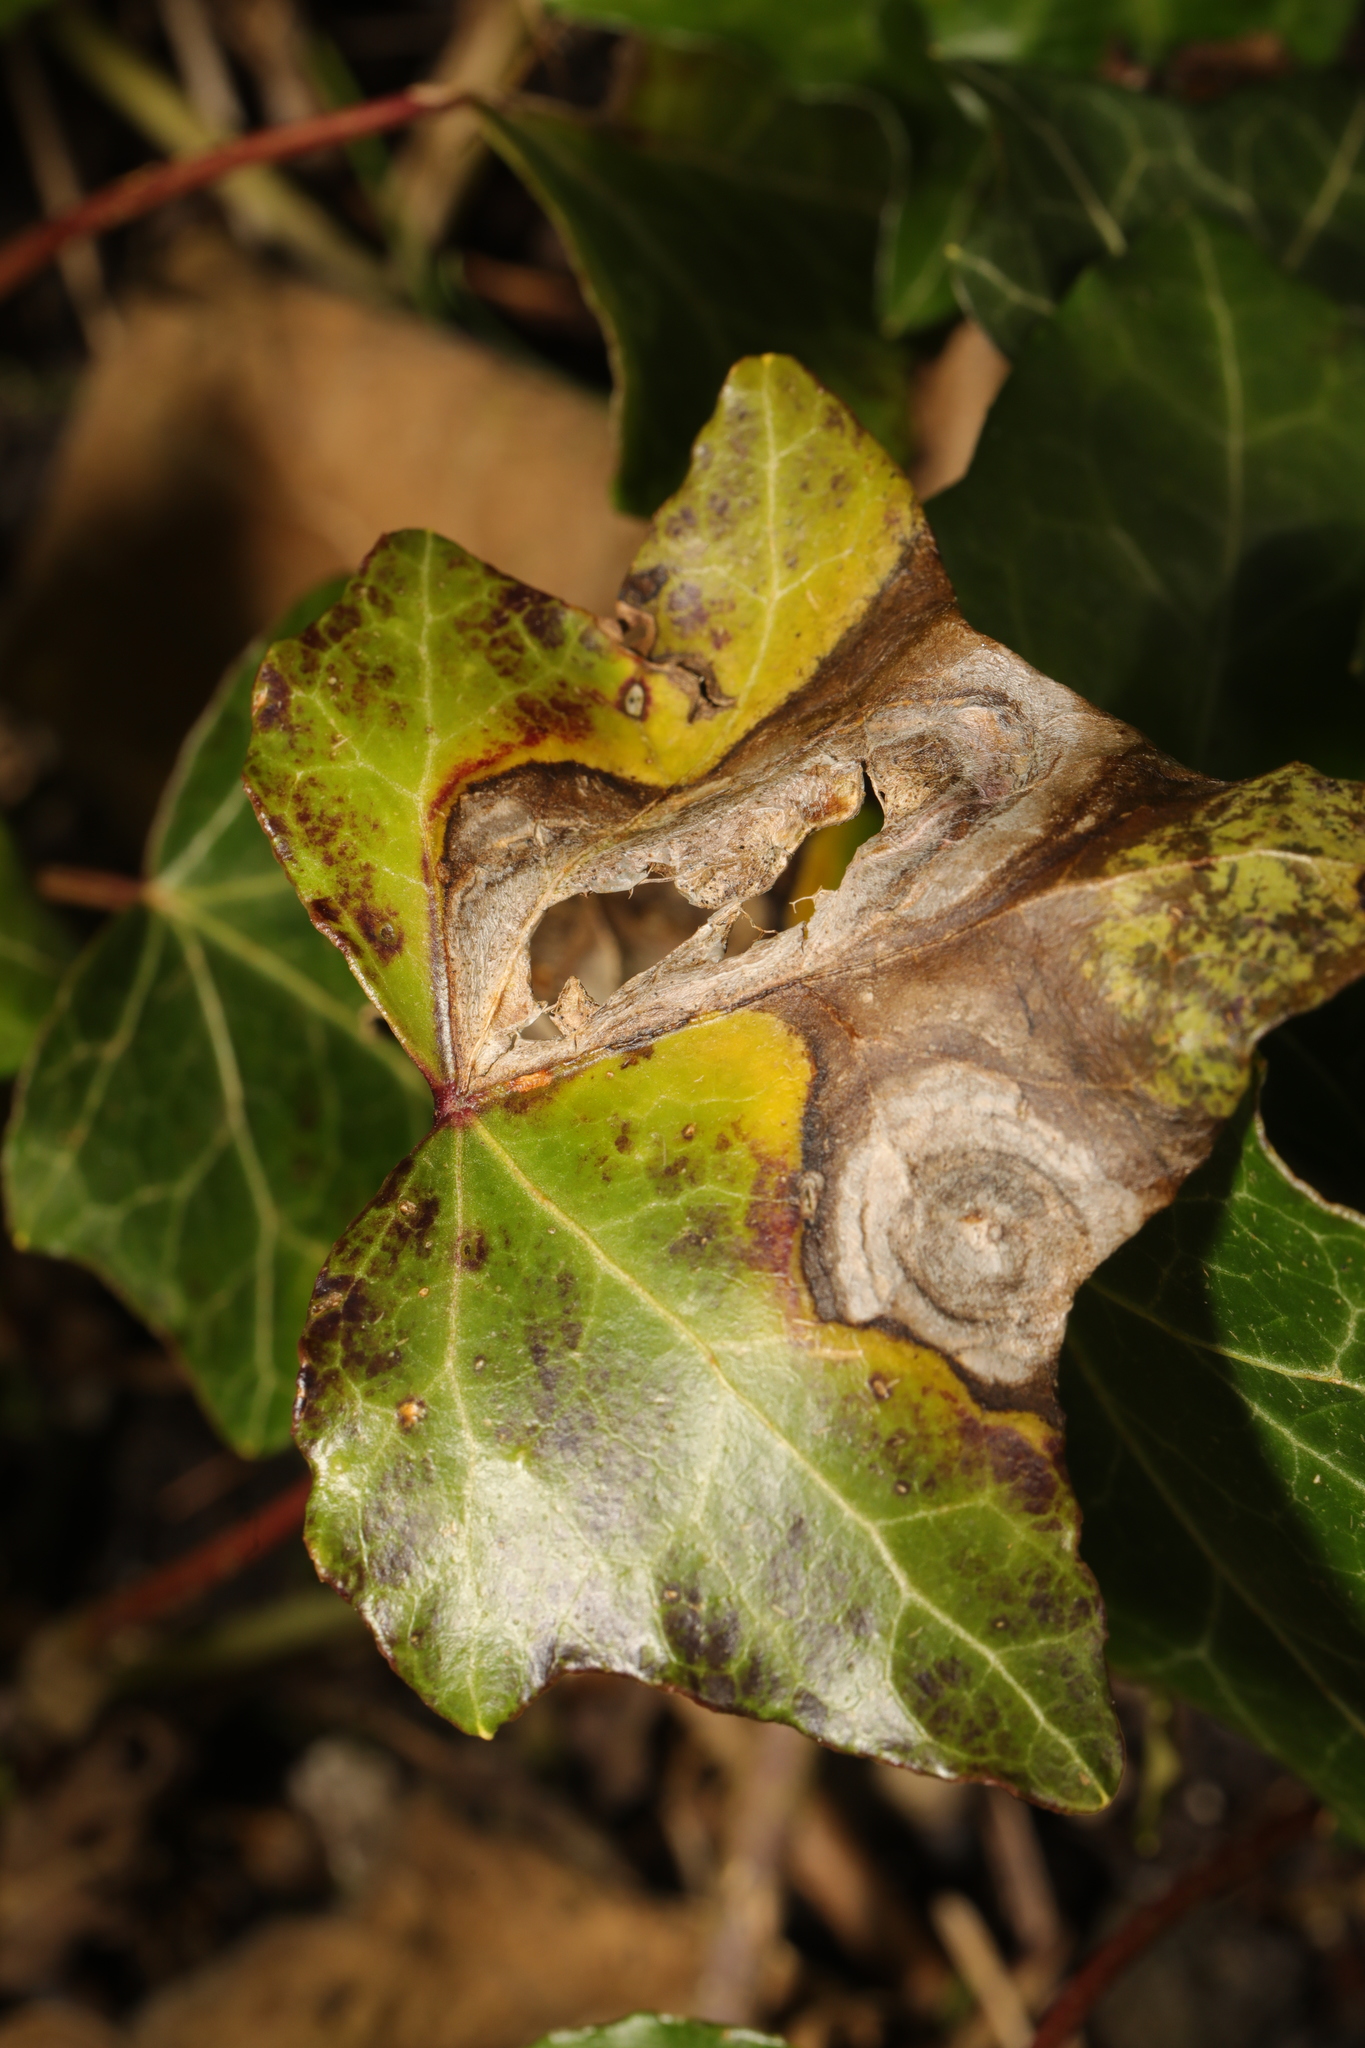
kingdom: Fungi
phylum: Ascomycota
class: Dothideomycetes
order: Pleosporales
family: Didymellaceae
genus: Boeremia
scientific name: Boeremia hedericola
